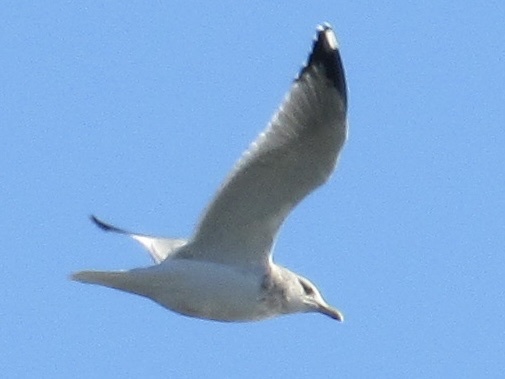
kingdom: Animalia
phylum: Chordata
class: Aves
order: Charadriiformes
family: Laridae
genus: Larus
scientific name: Larus argentatus
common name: Herring gull
